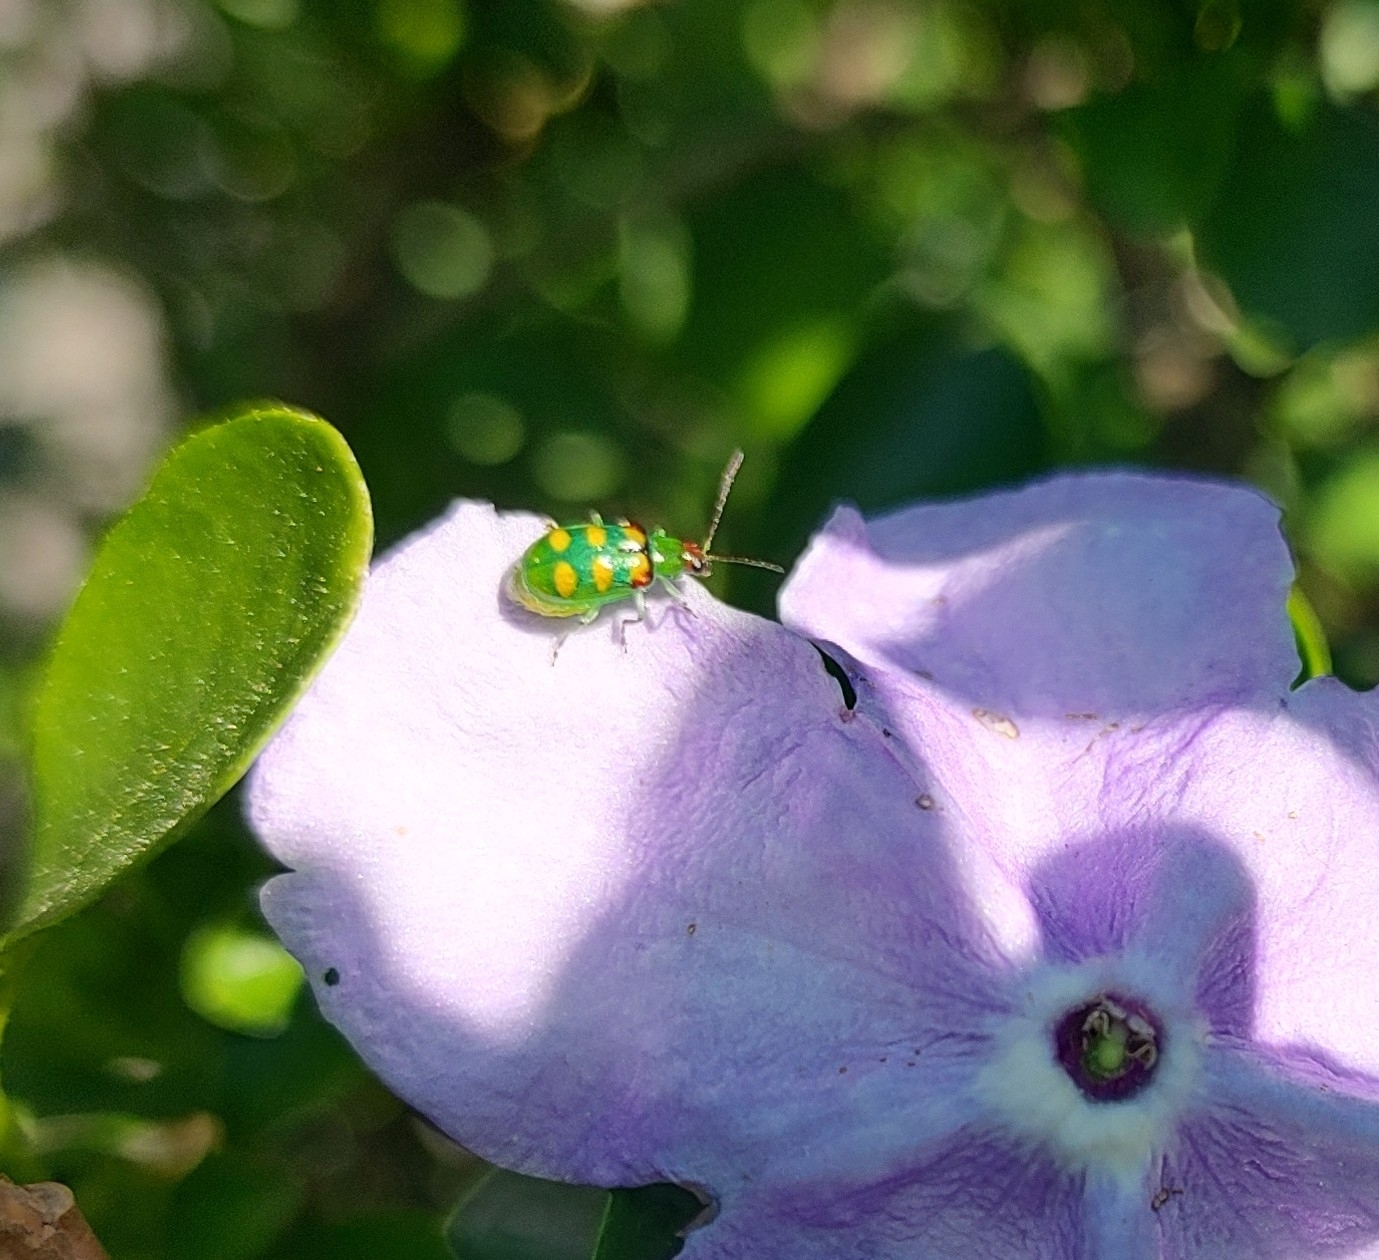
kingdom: Animalia
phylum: Arthropoda
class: Insecta
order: Coleoptera
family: Chrysomelidae
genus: Diabrotica
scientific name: Diabrotica speciosa
